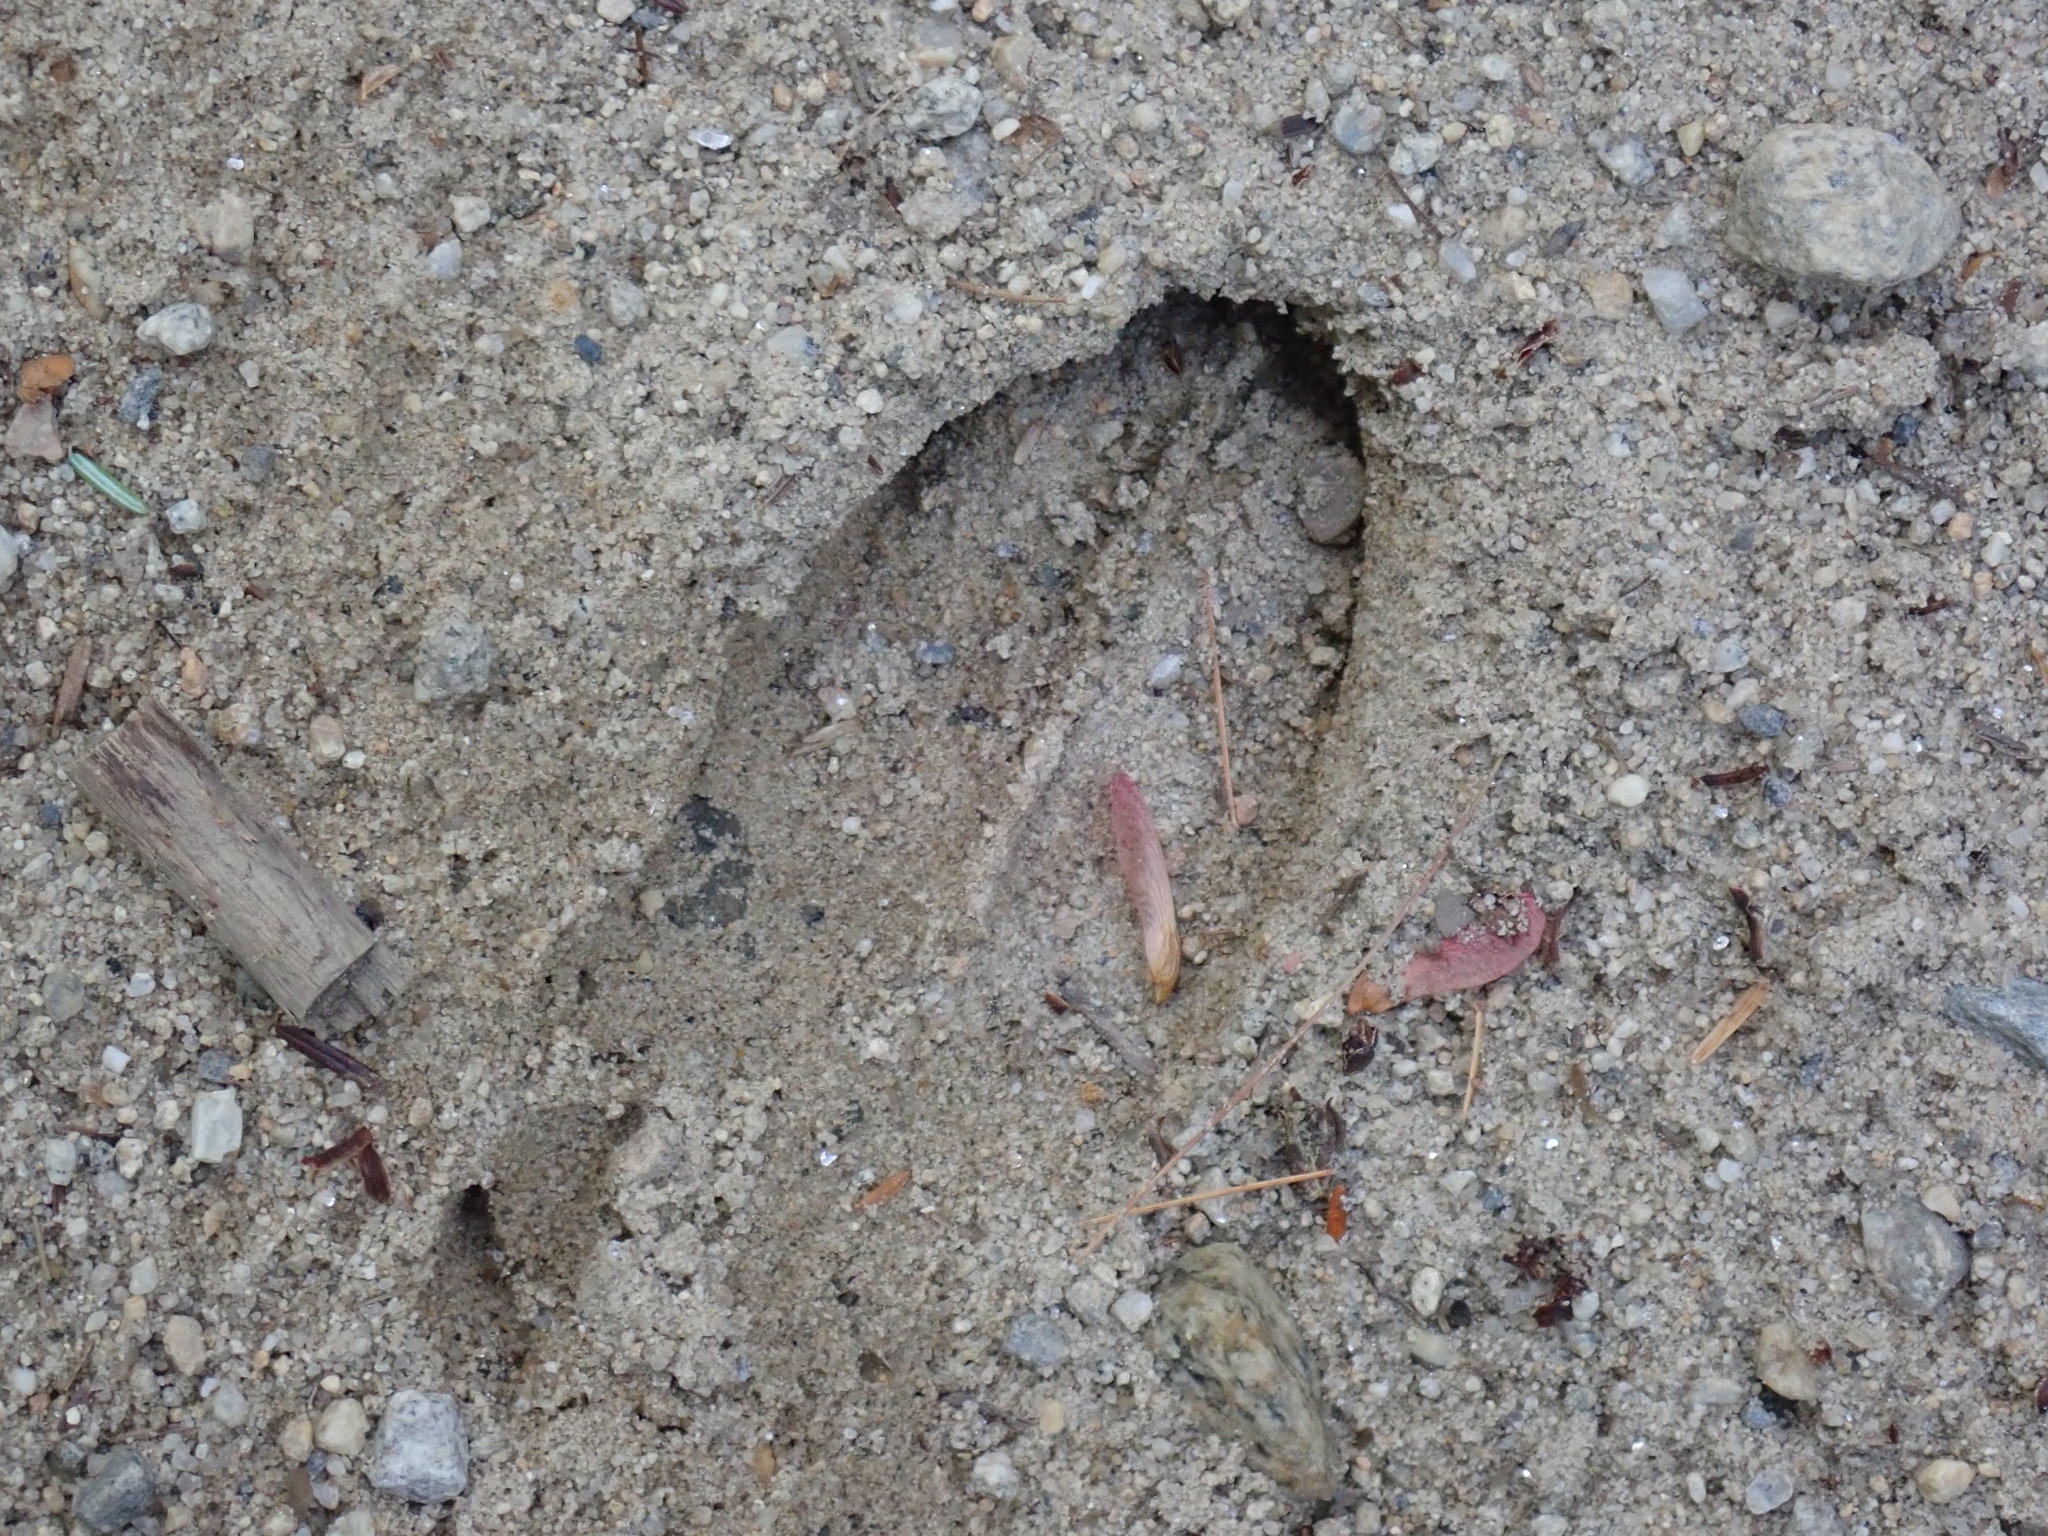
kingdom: Animalia
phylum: Chordata
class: Mammalia
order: Artiodactyla
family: Cervidae
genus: Odocoileus
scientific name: Odocoileus virginianus
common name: White-tailed deer
